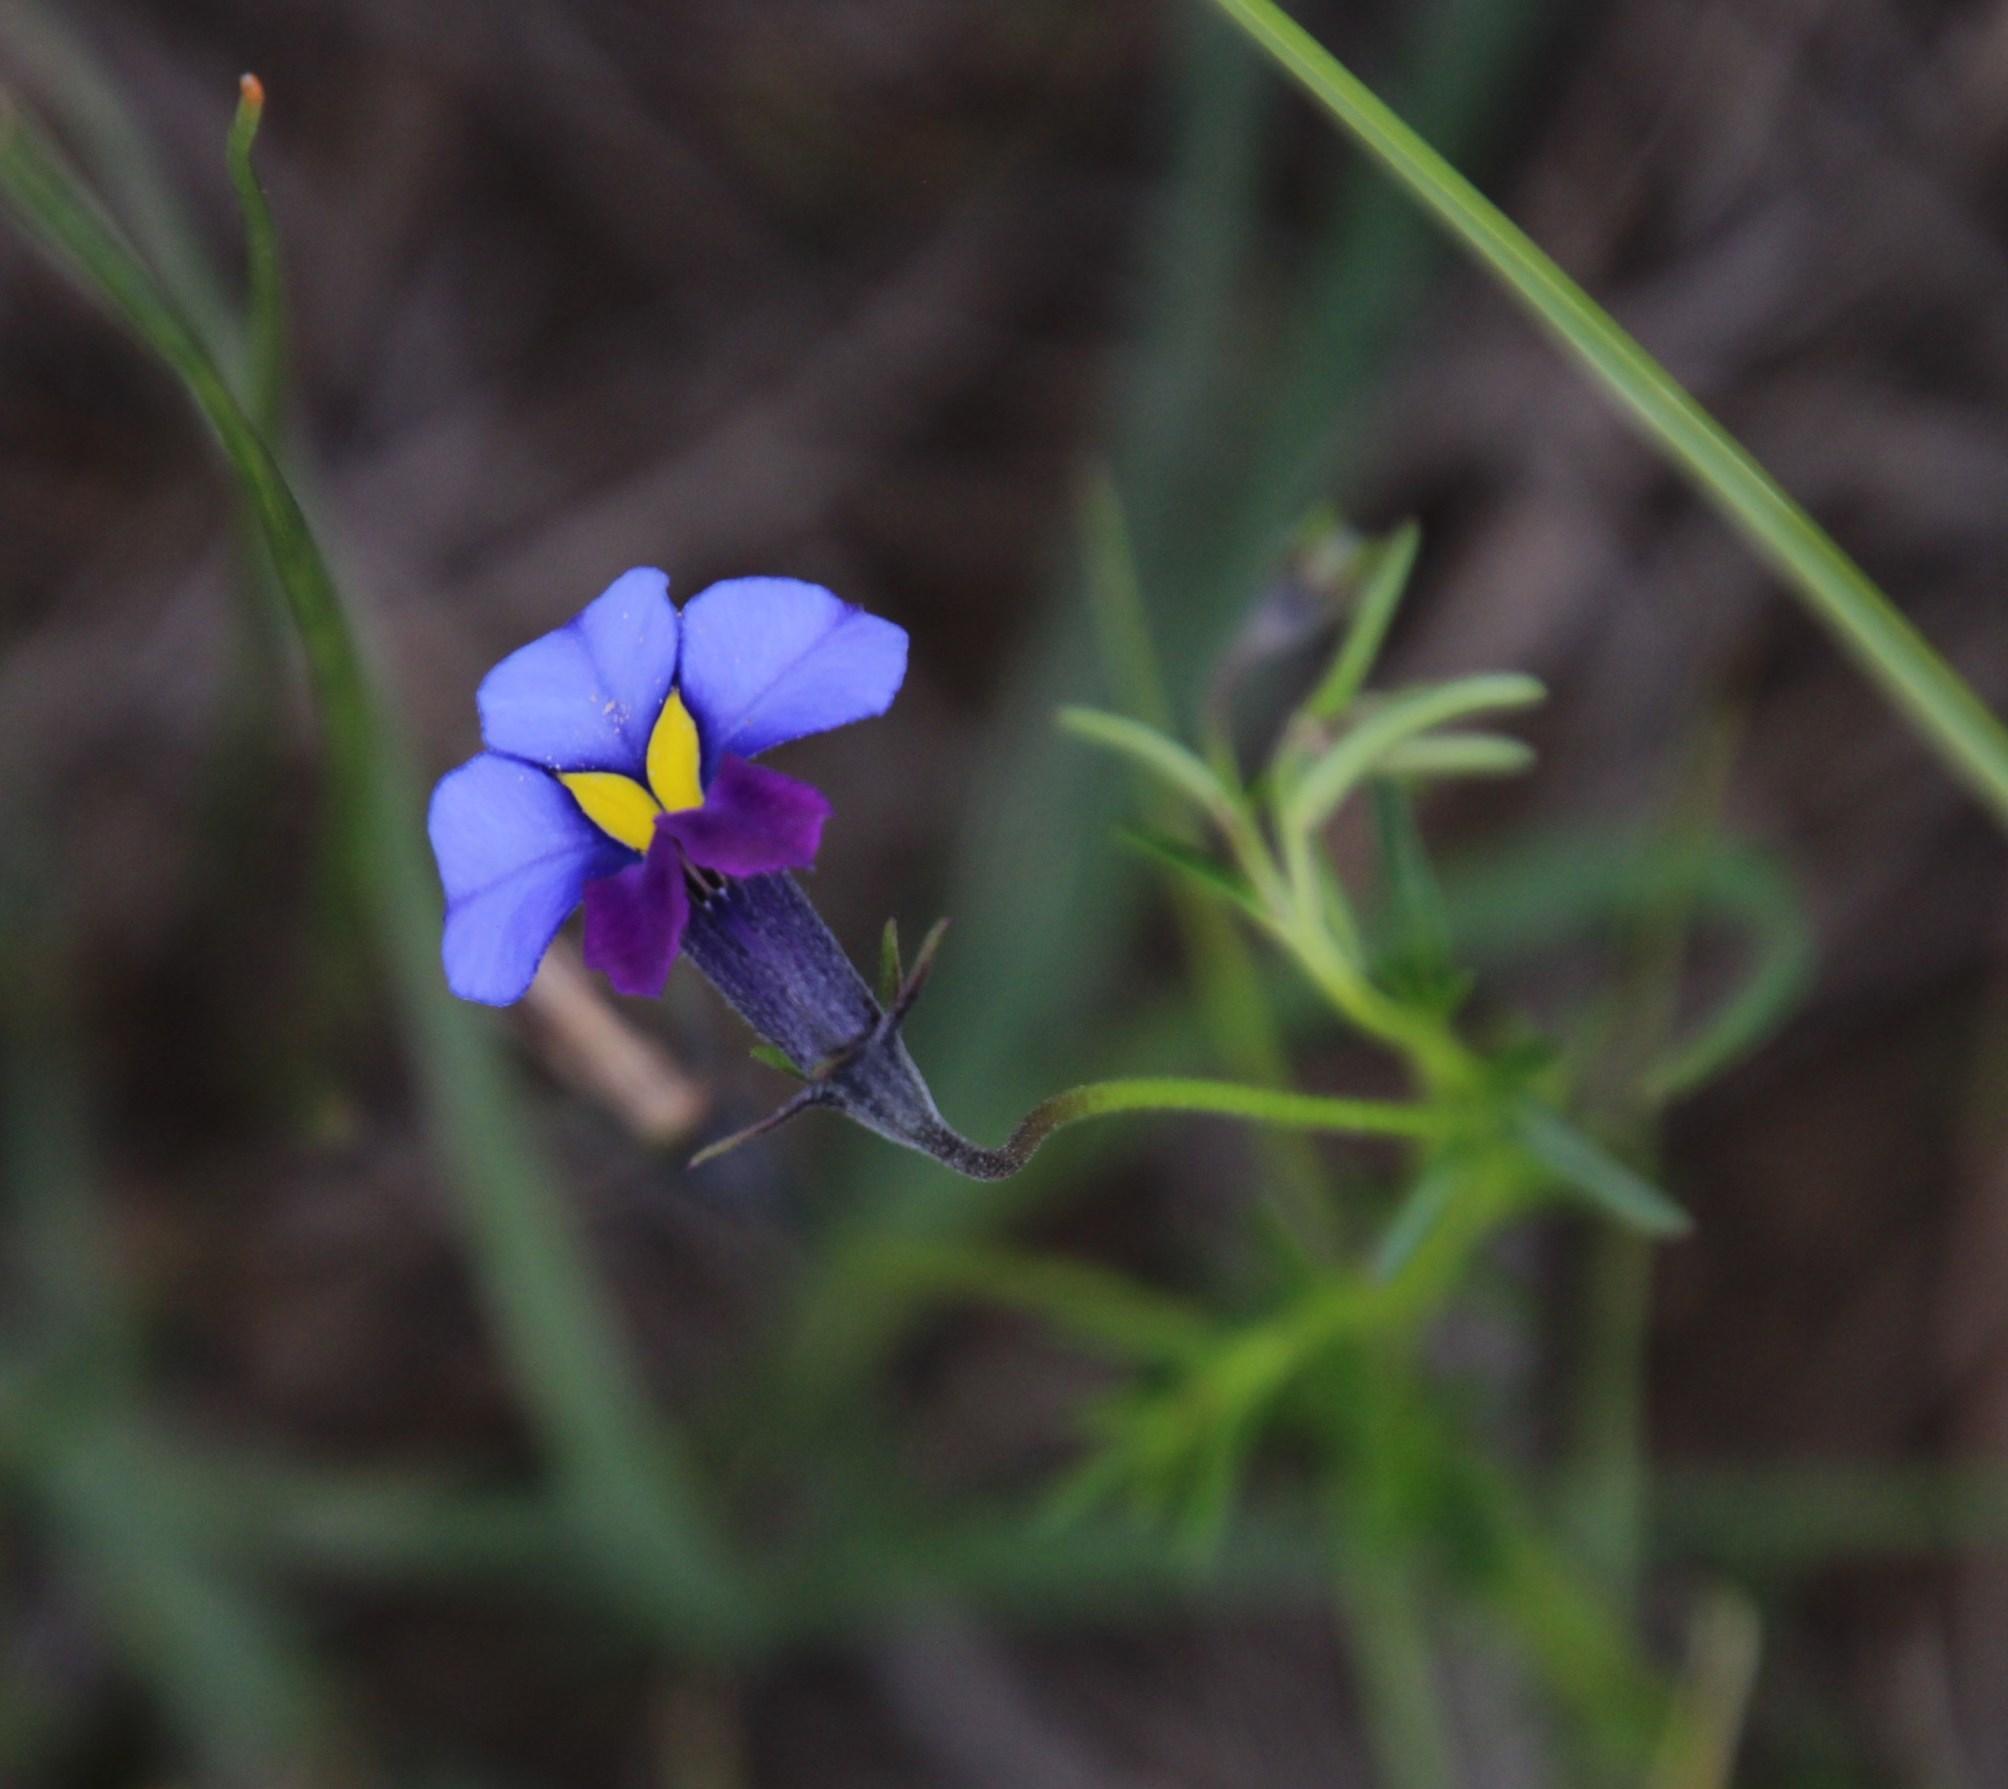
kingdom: Plantae
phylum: Tracheophyta
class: Magnoliopsida
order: Asterales
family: Campanulaceae
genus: Monopsis
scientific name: Monopsis decipiens
